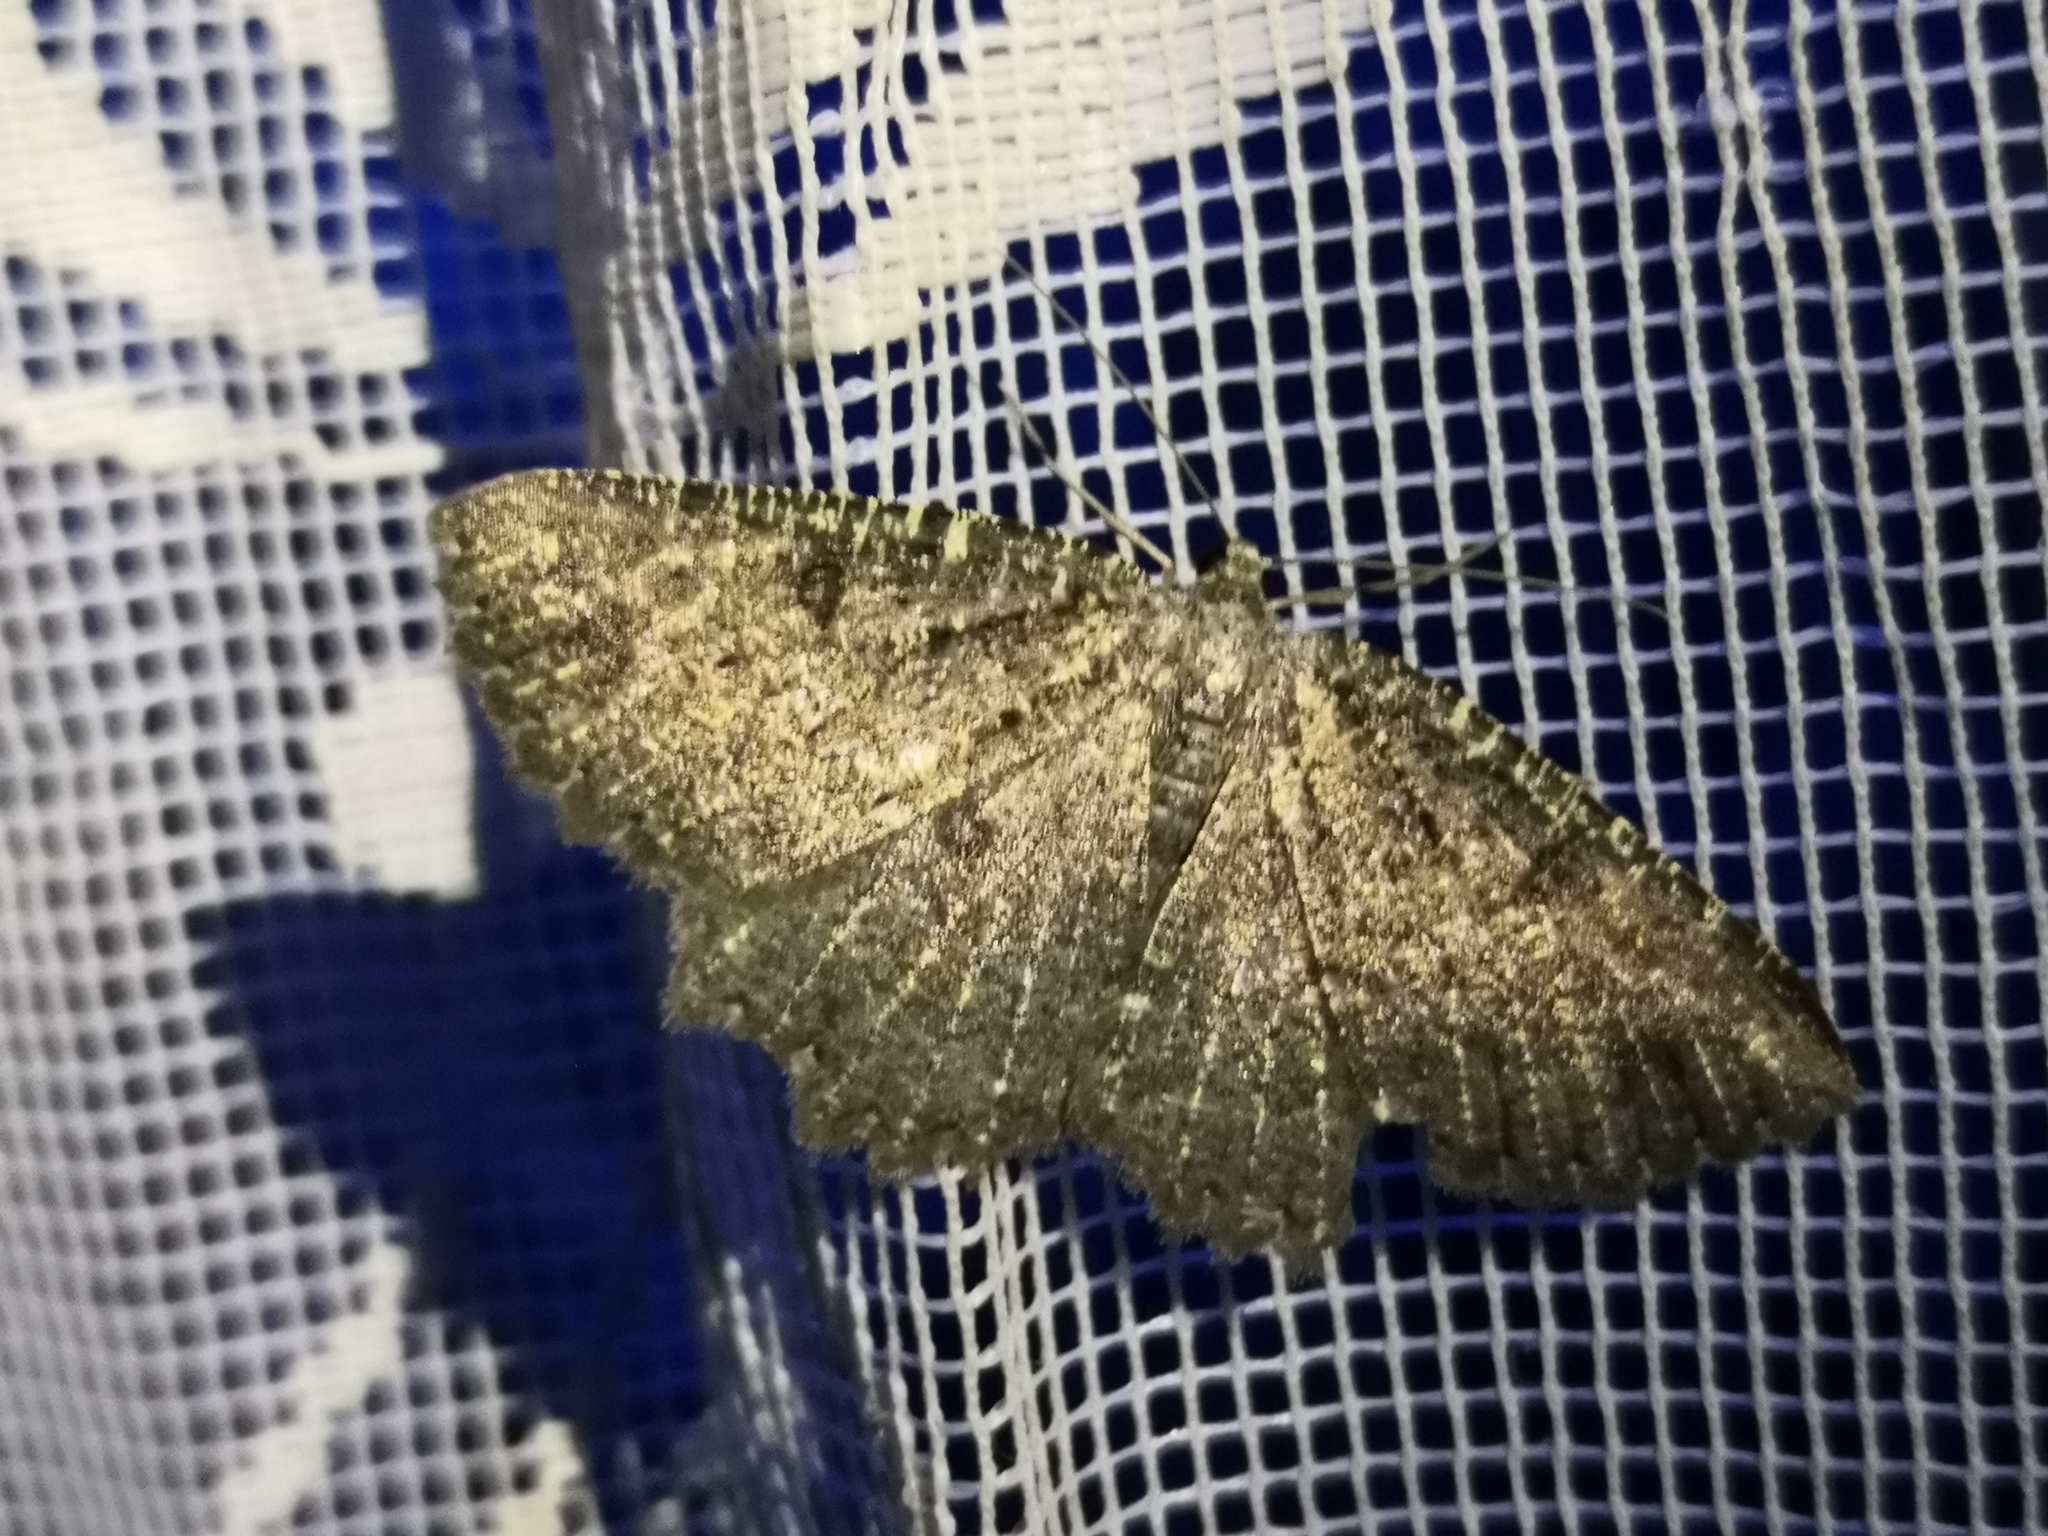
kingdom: Animalia
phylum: Arthropoda
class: Insecta
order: Lepidoptera
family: Geometridae
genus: Charissa
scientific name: Charissa obscurata
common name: Annulet
